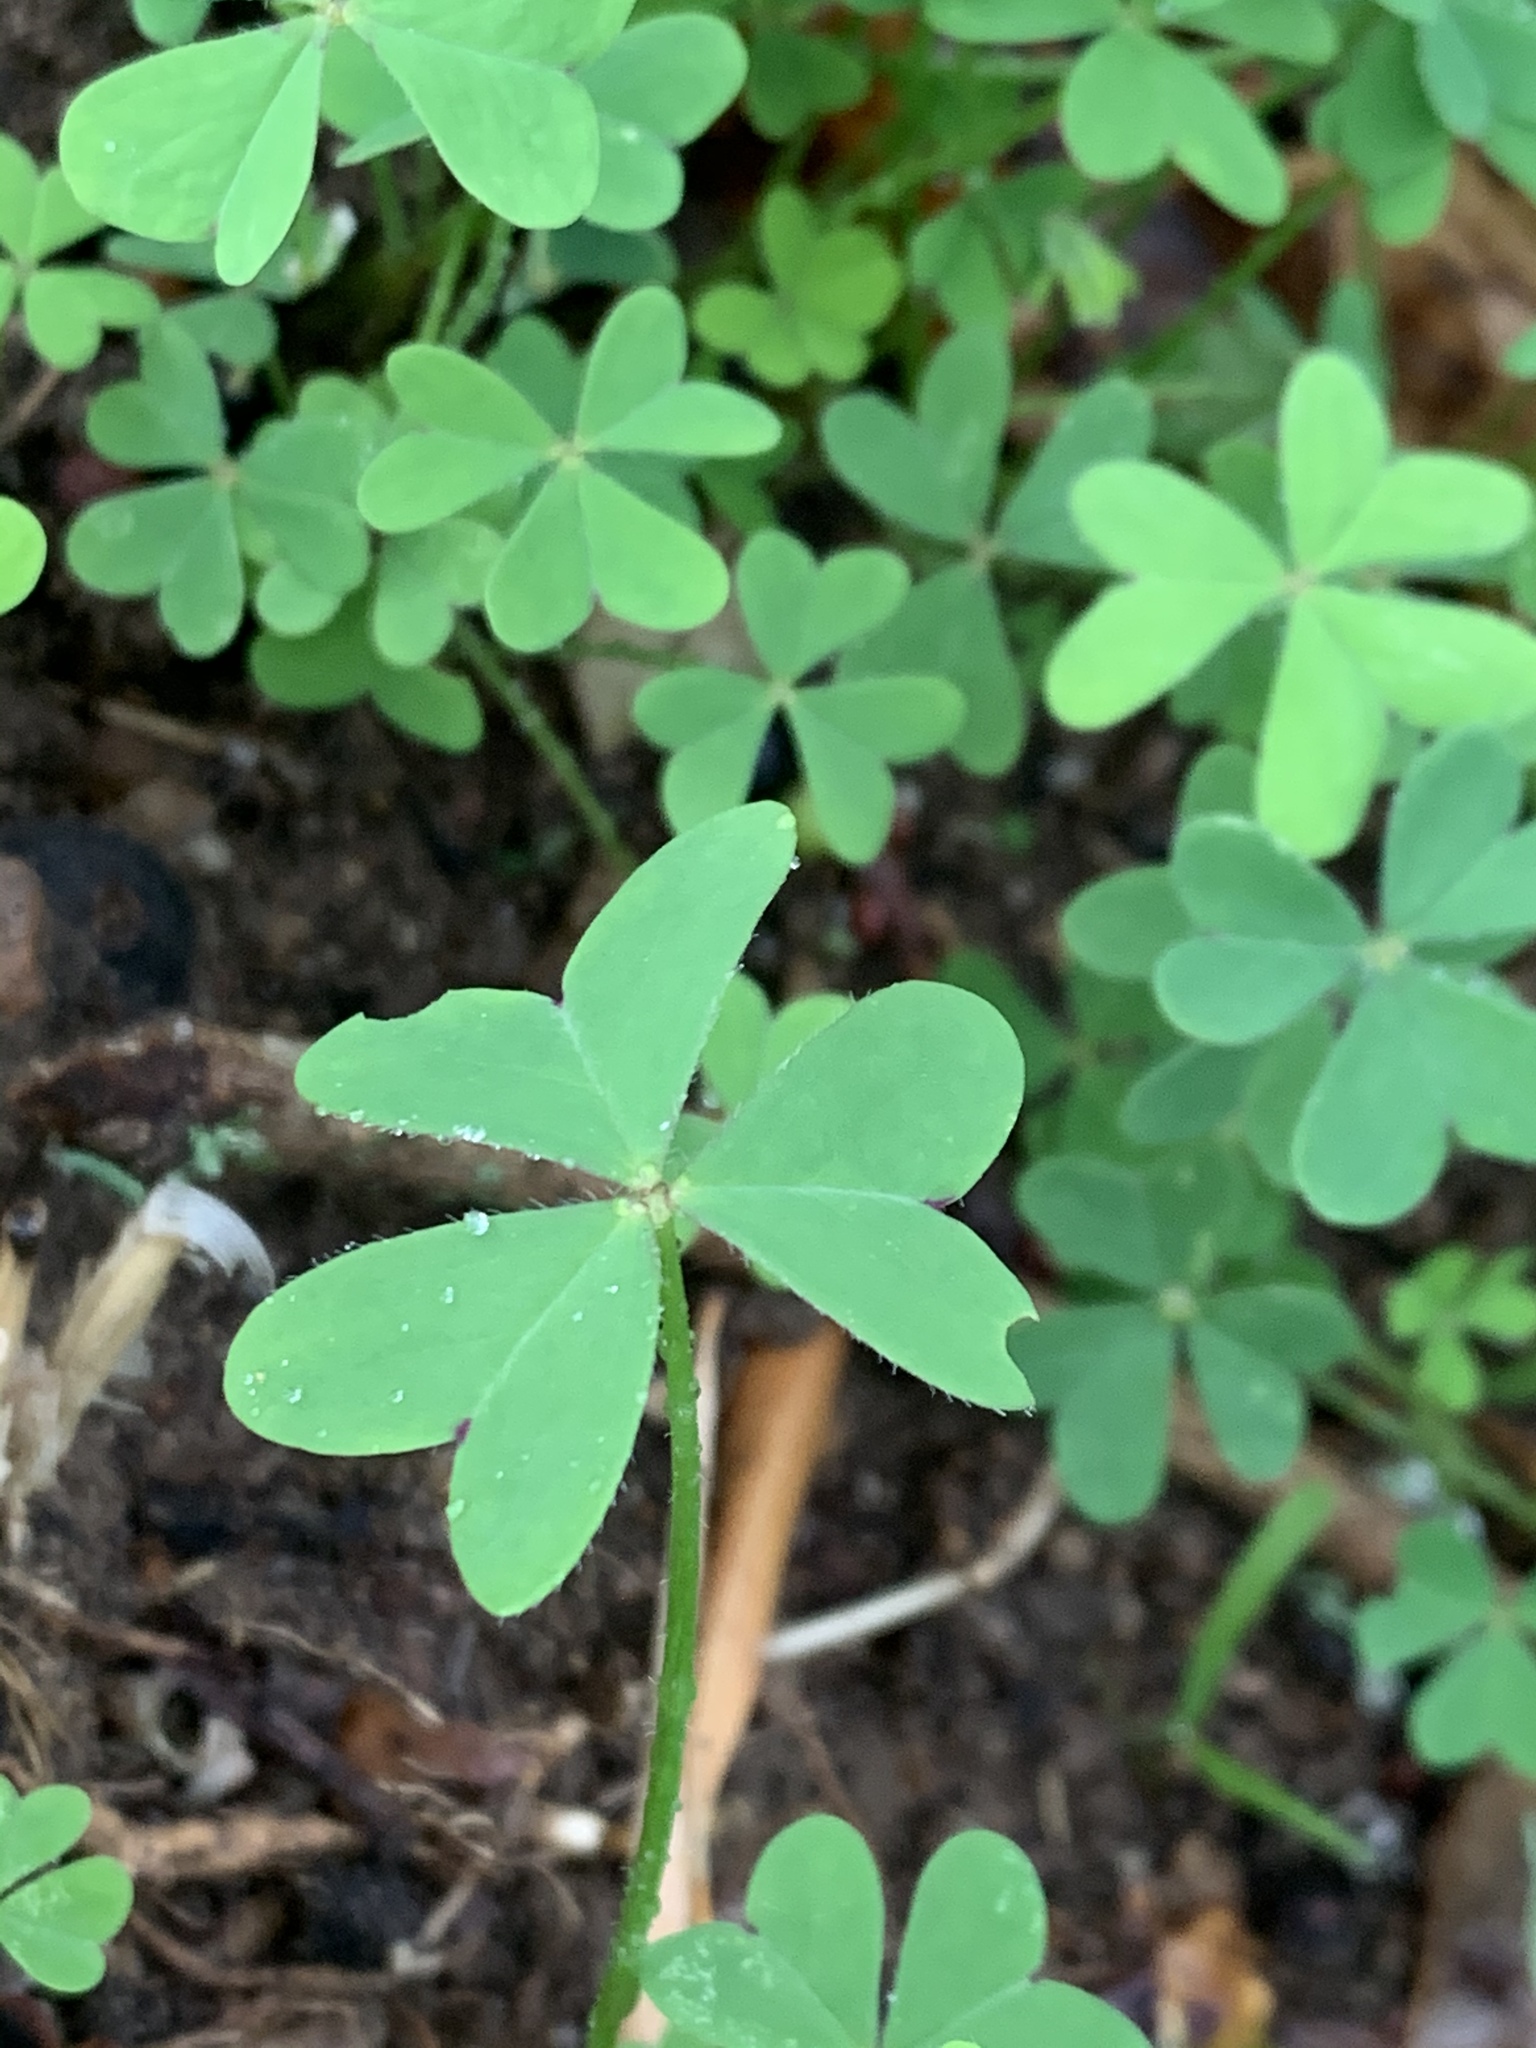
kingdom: Plantae
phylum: Tracheophyta
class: Magnoliopsida
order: Oxalidales
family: Oxalidaceae
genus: Oxalis
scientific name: Oxalis pes-caprae
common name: Bermuda-buttercup
